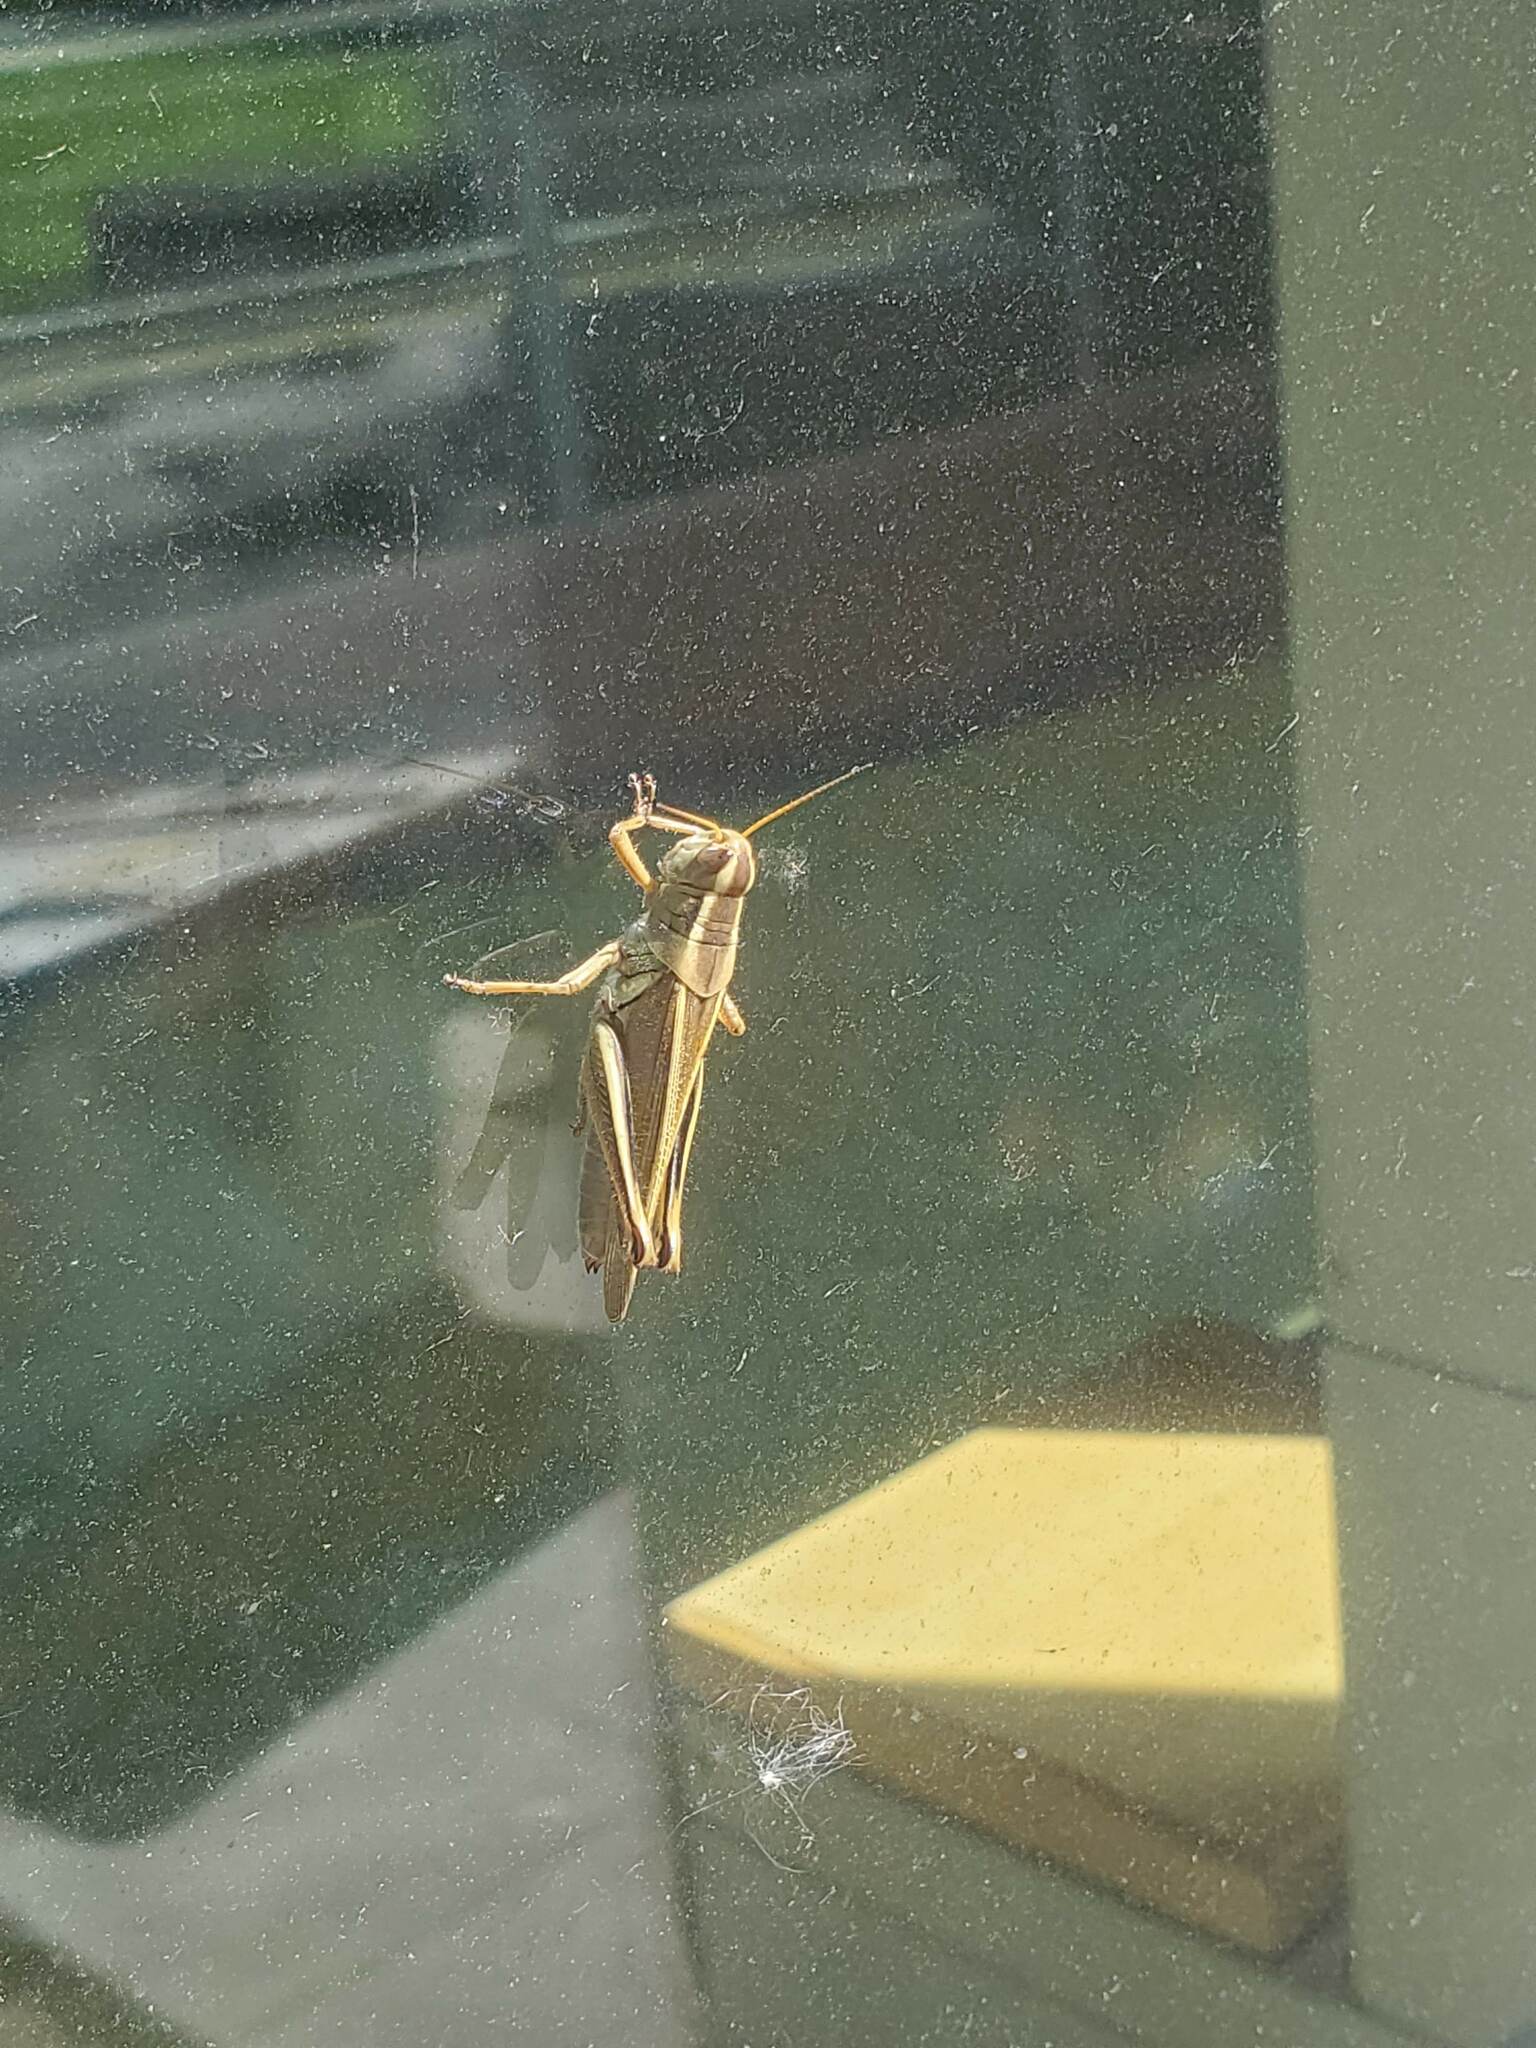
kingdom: Animalia
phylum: Arthropoda
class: Insecta
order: Orthoptera
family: Acrididae
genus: Melanoplus
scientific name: Melanoplus bivittatus
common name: Two-striped grasshopper
